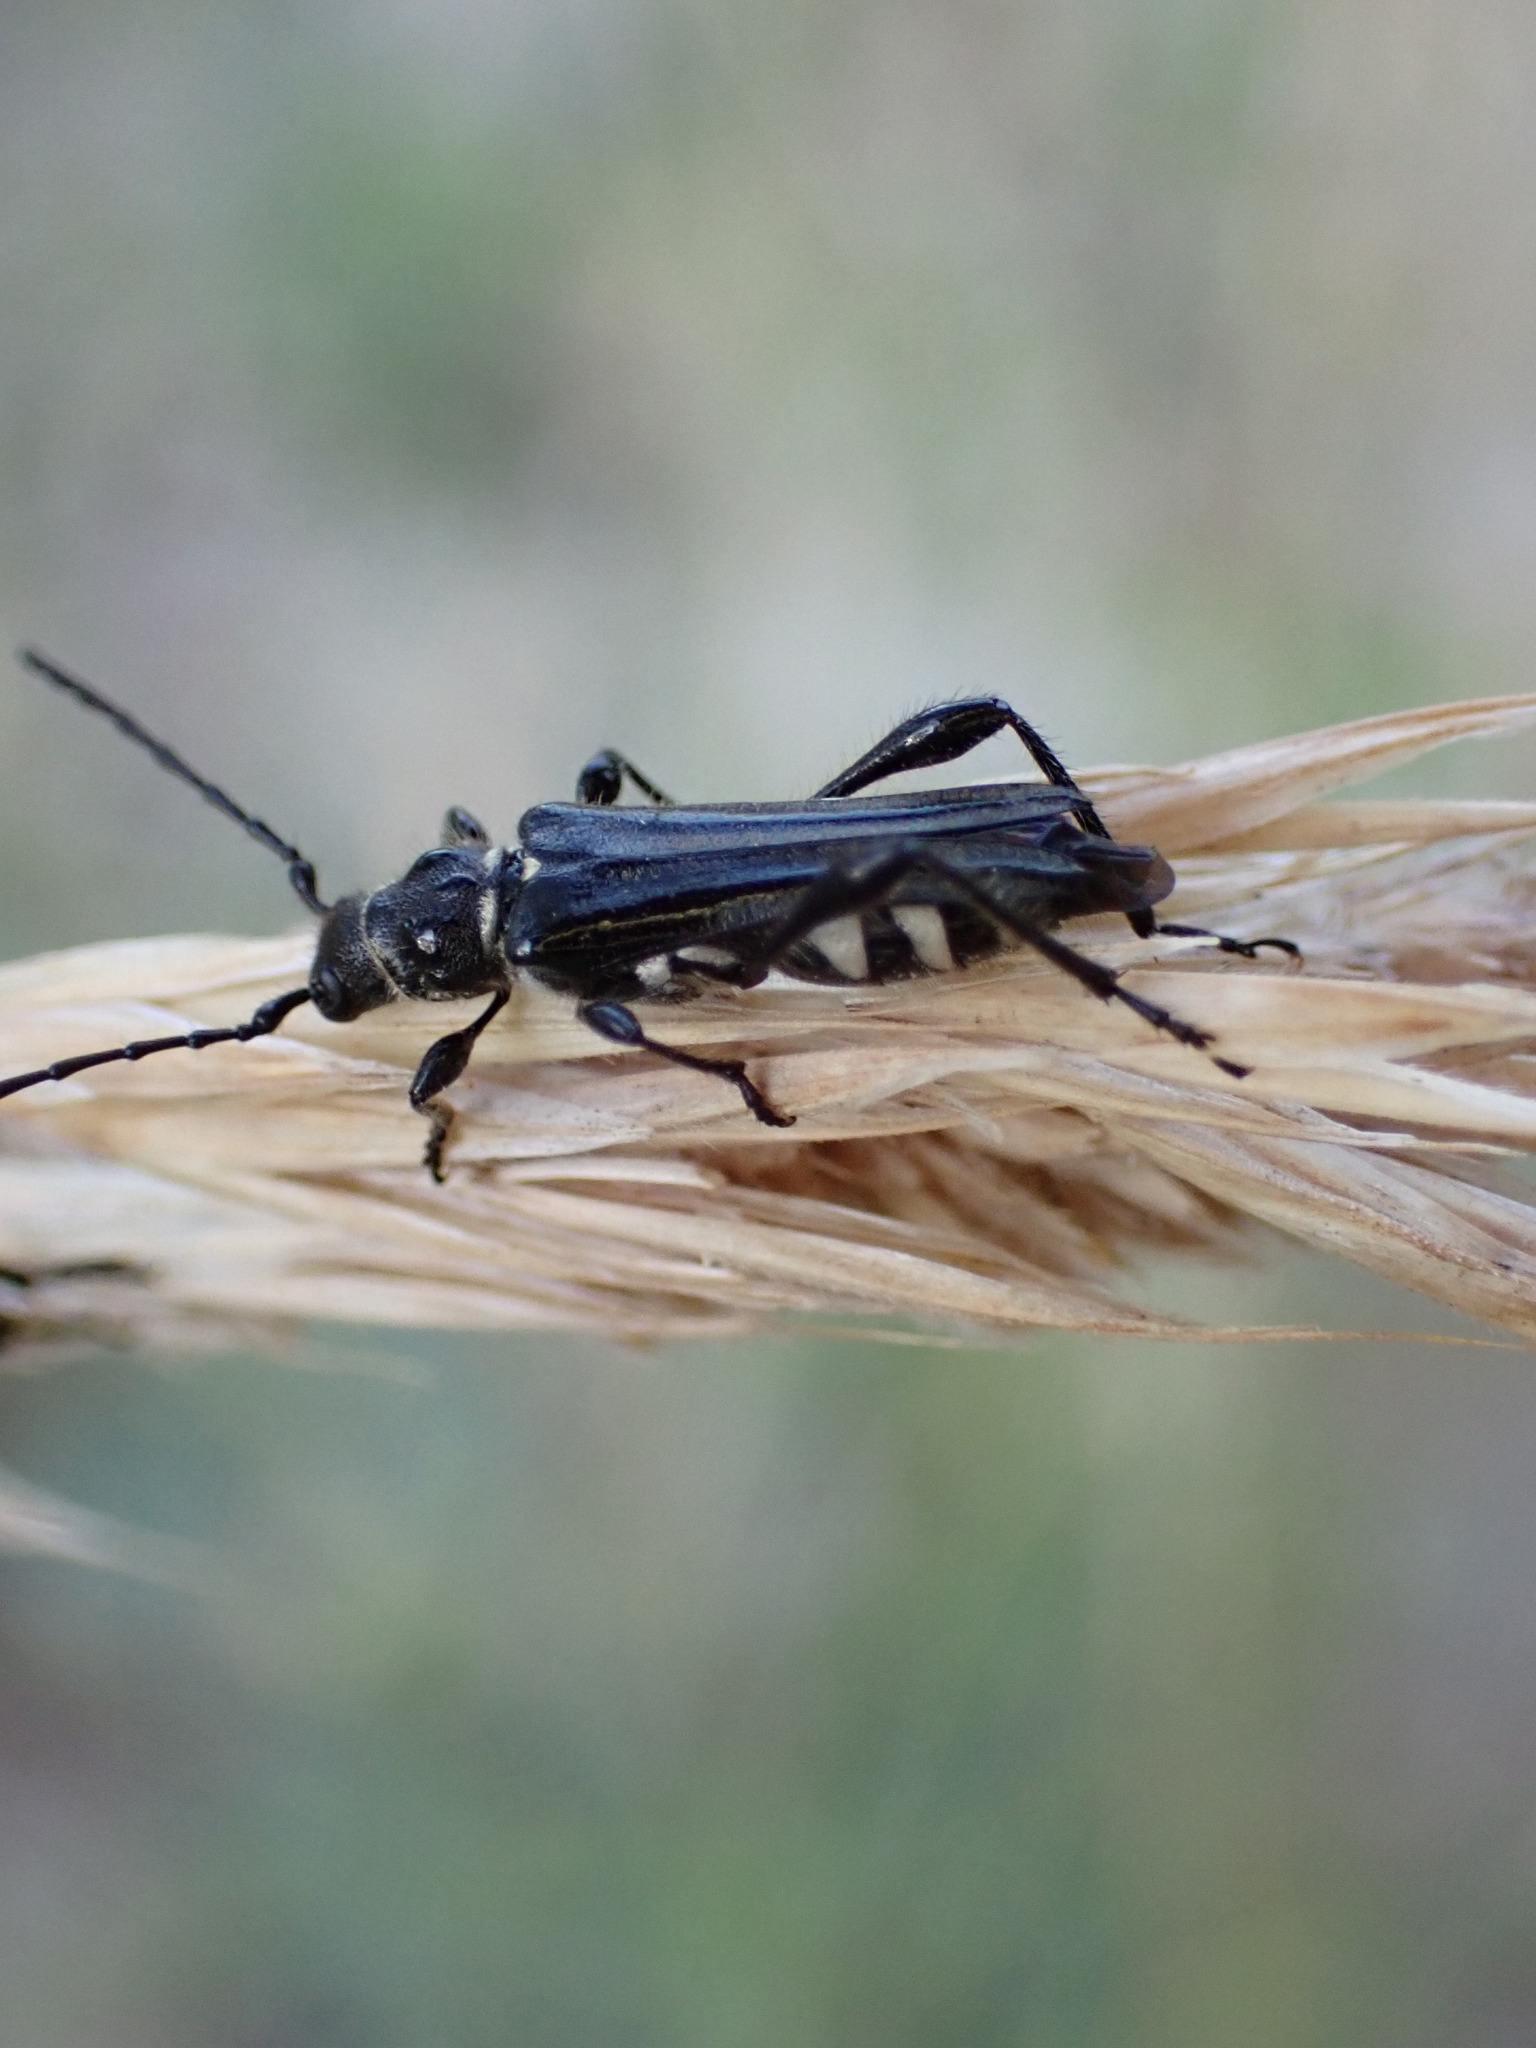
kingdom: Animalia
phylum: Arthropoda
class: Insecta
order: Coleoptera
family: Cerambycidae
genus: Stenopterus
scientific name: Stenopterus ater
